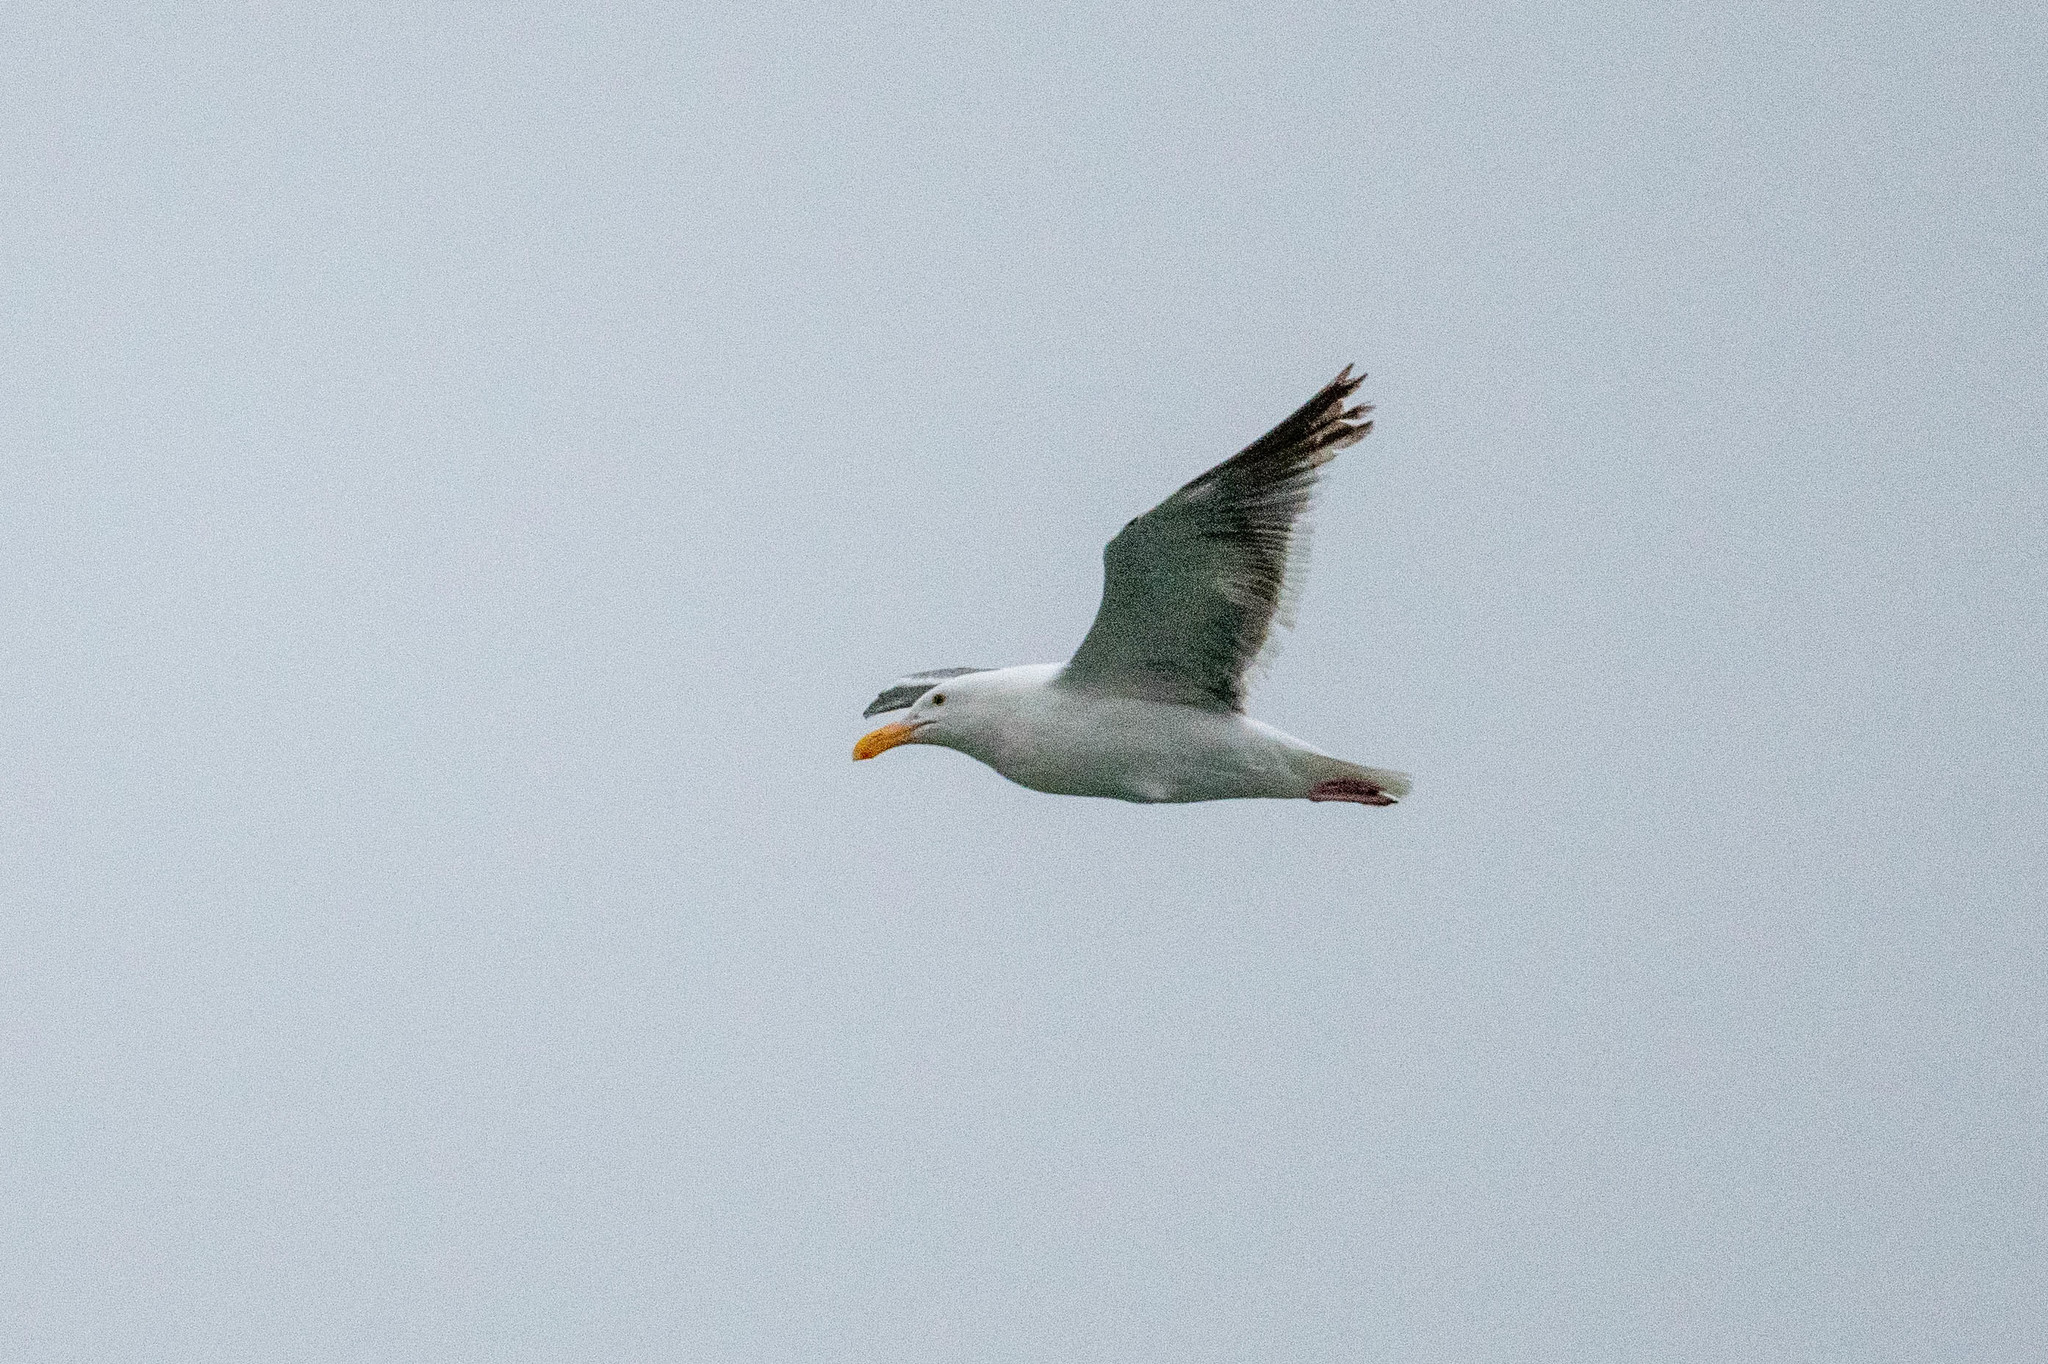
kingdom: Animalia
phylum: Chordata
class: Aves
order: Charadriiformes
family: Laridae
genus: Larus
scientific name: Larus occidentalis
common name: Western gull
